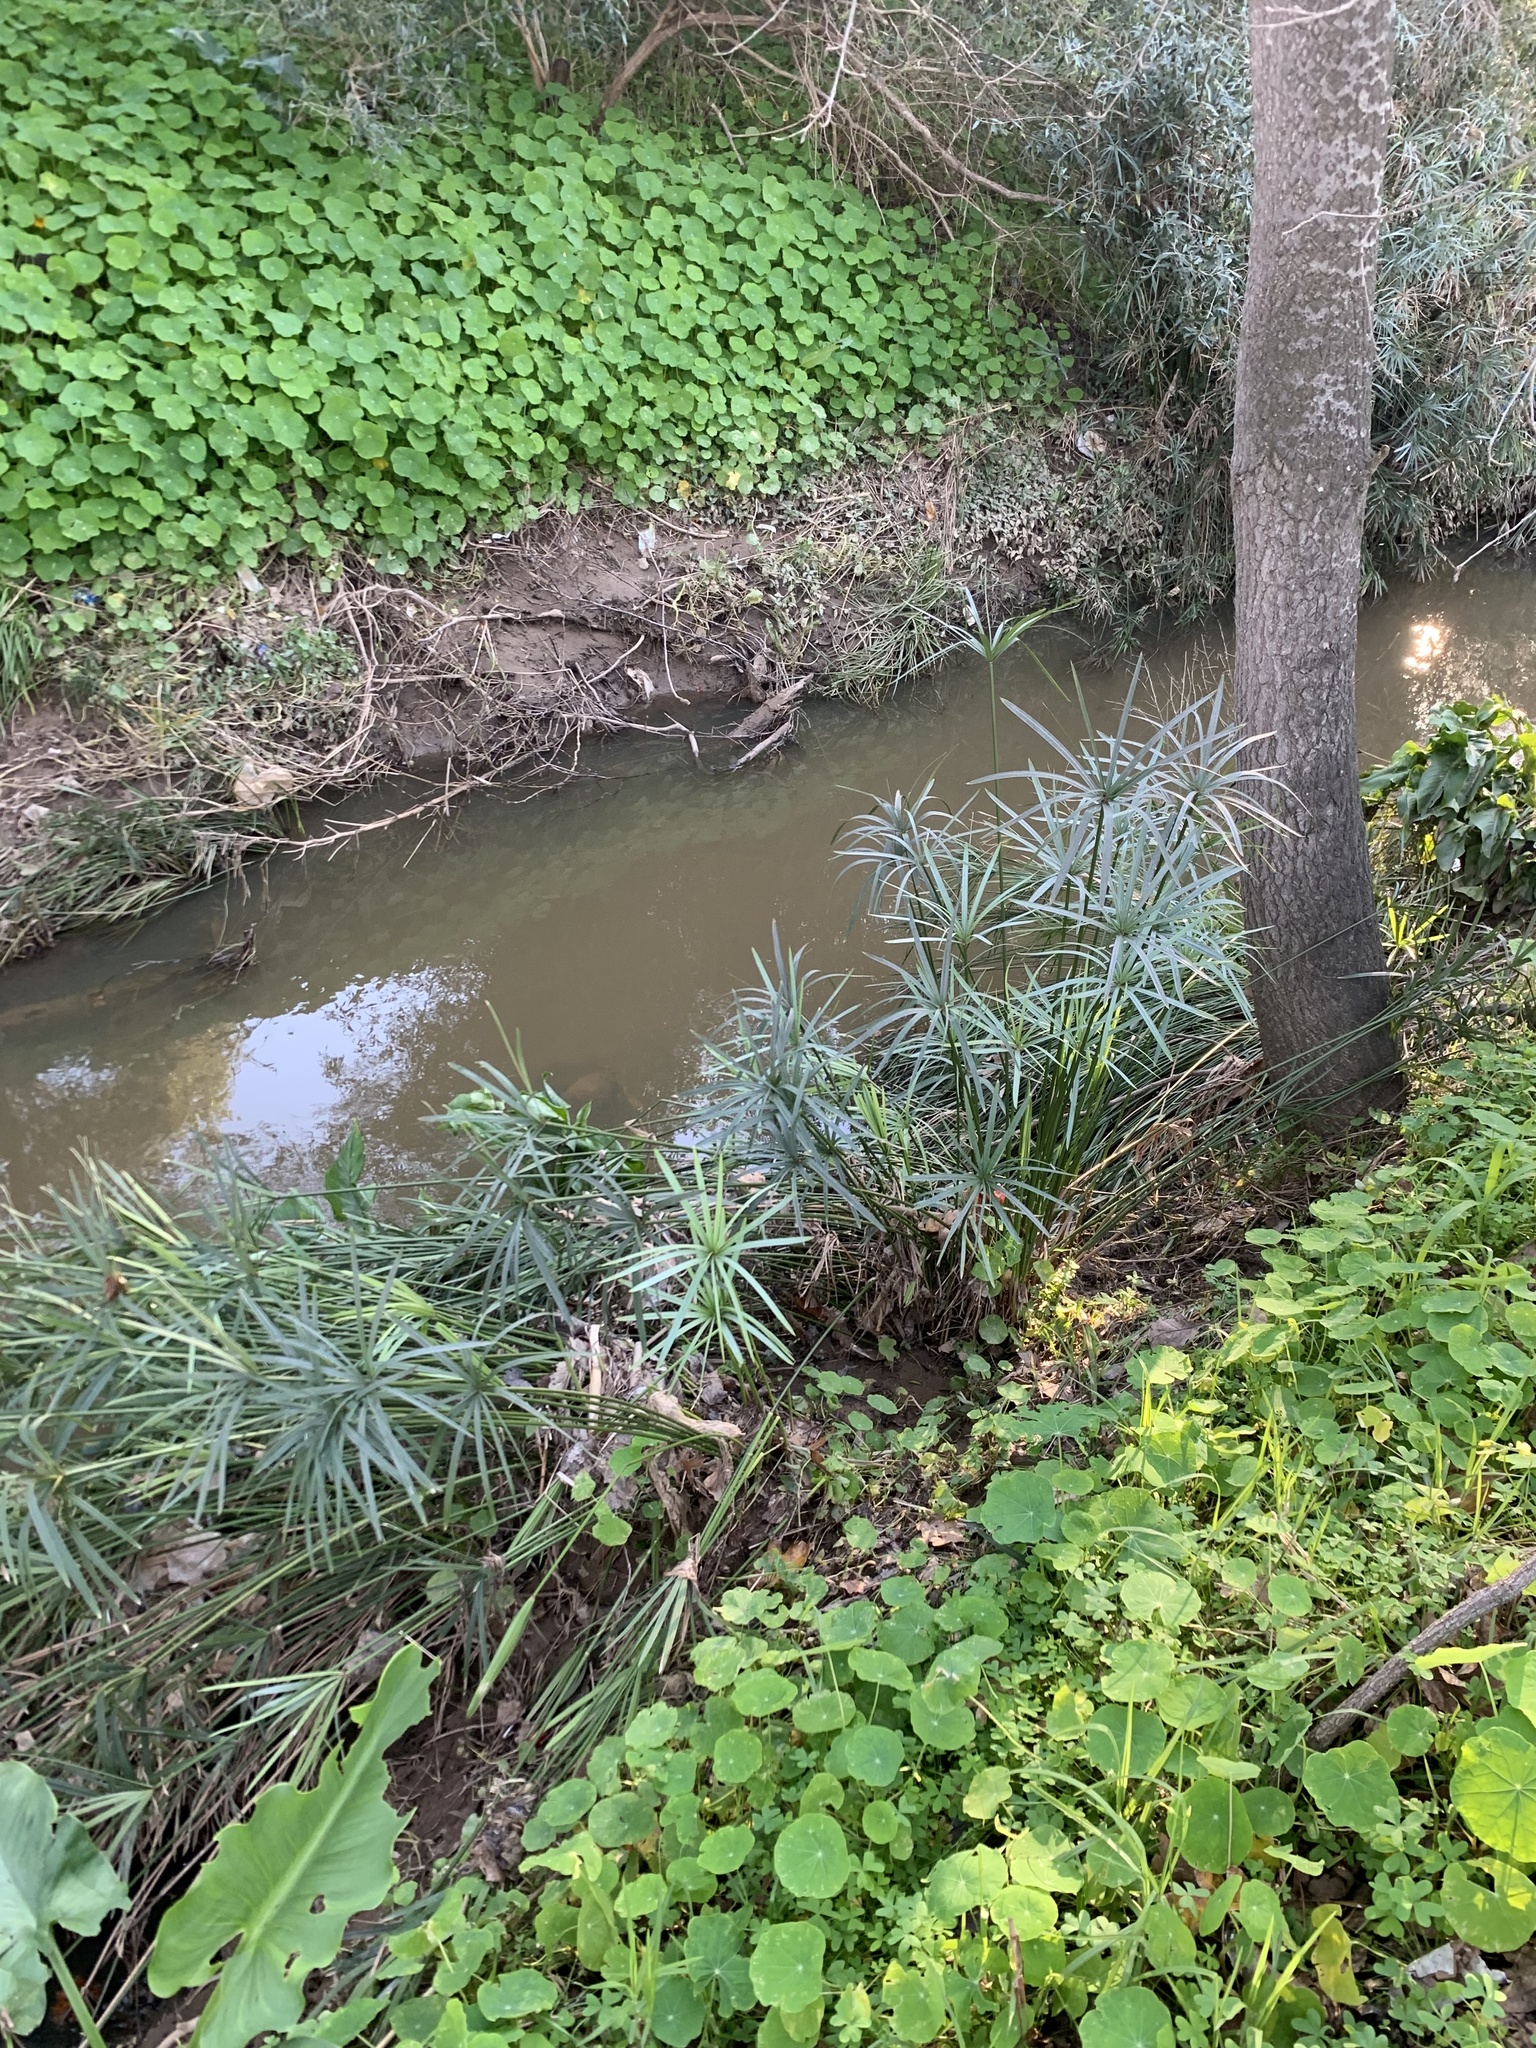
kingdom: Plantae
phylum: Tracheophyta
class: Liliopsida
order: Poales
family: Cyperaceae
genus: Cyperus
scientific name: Cyperus textilis
